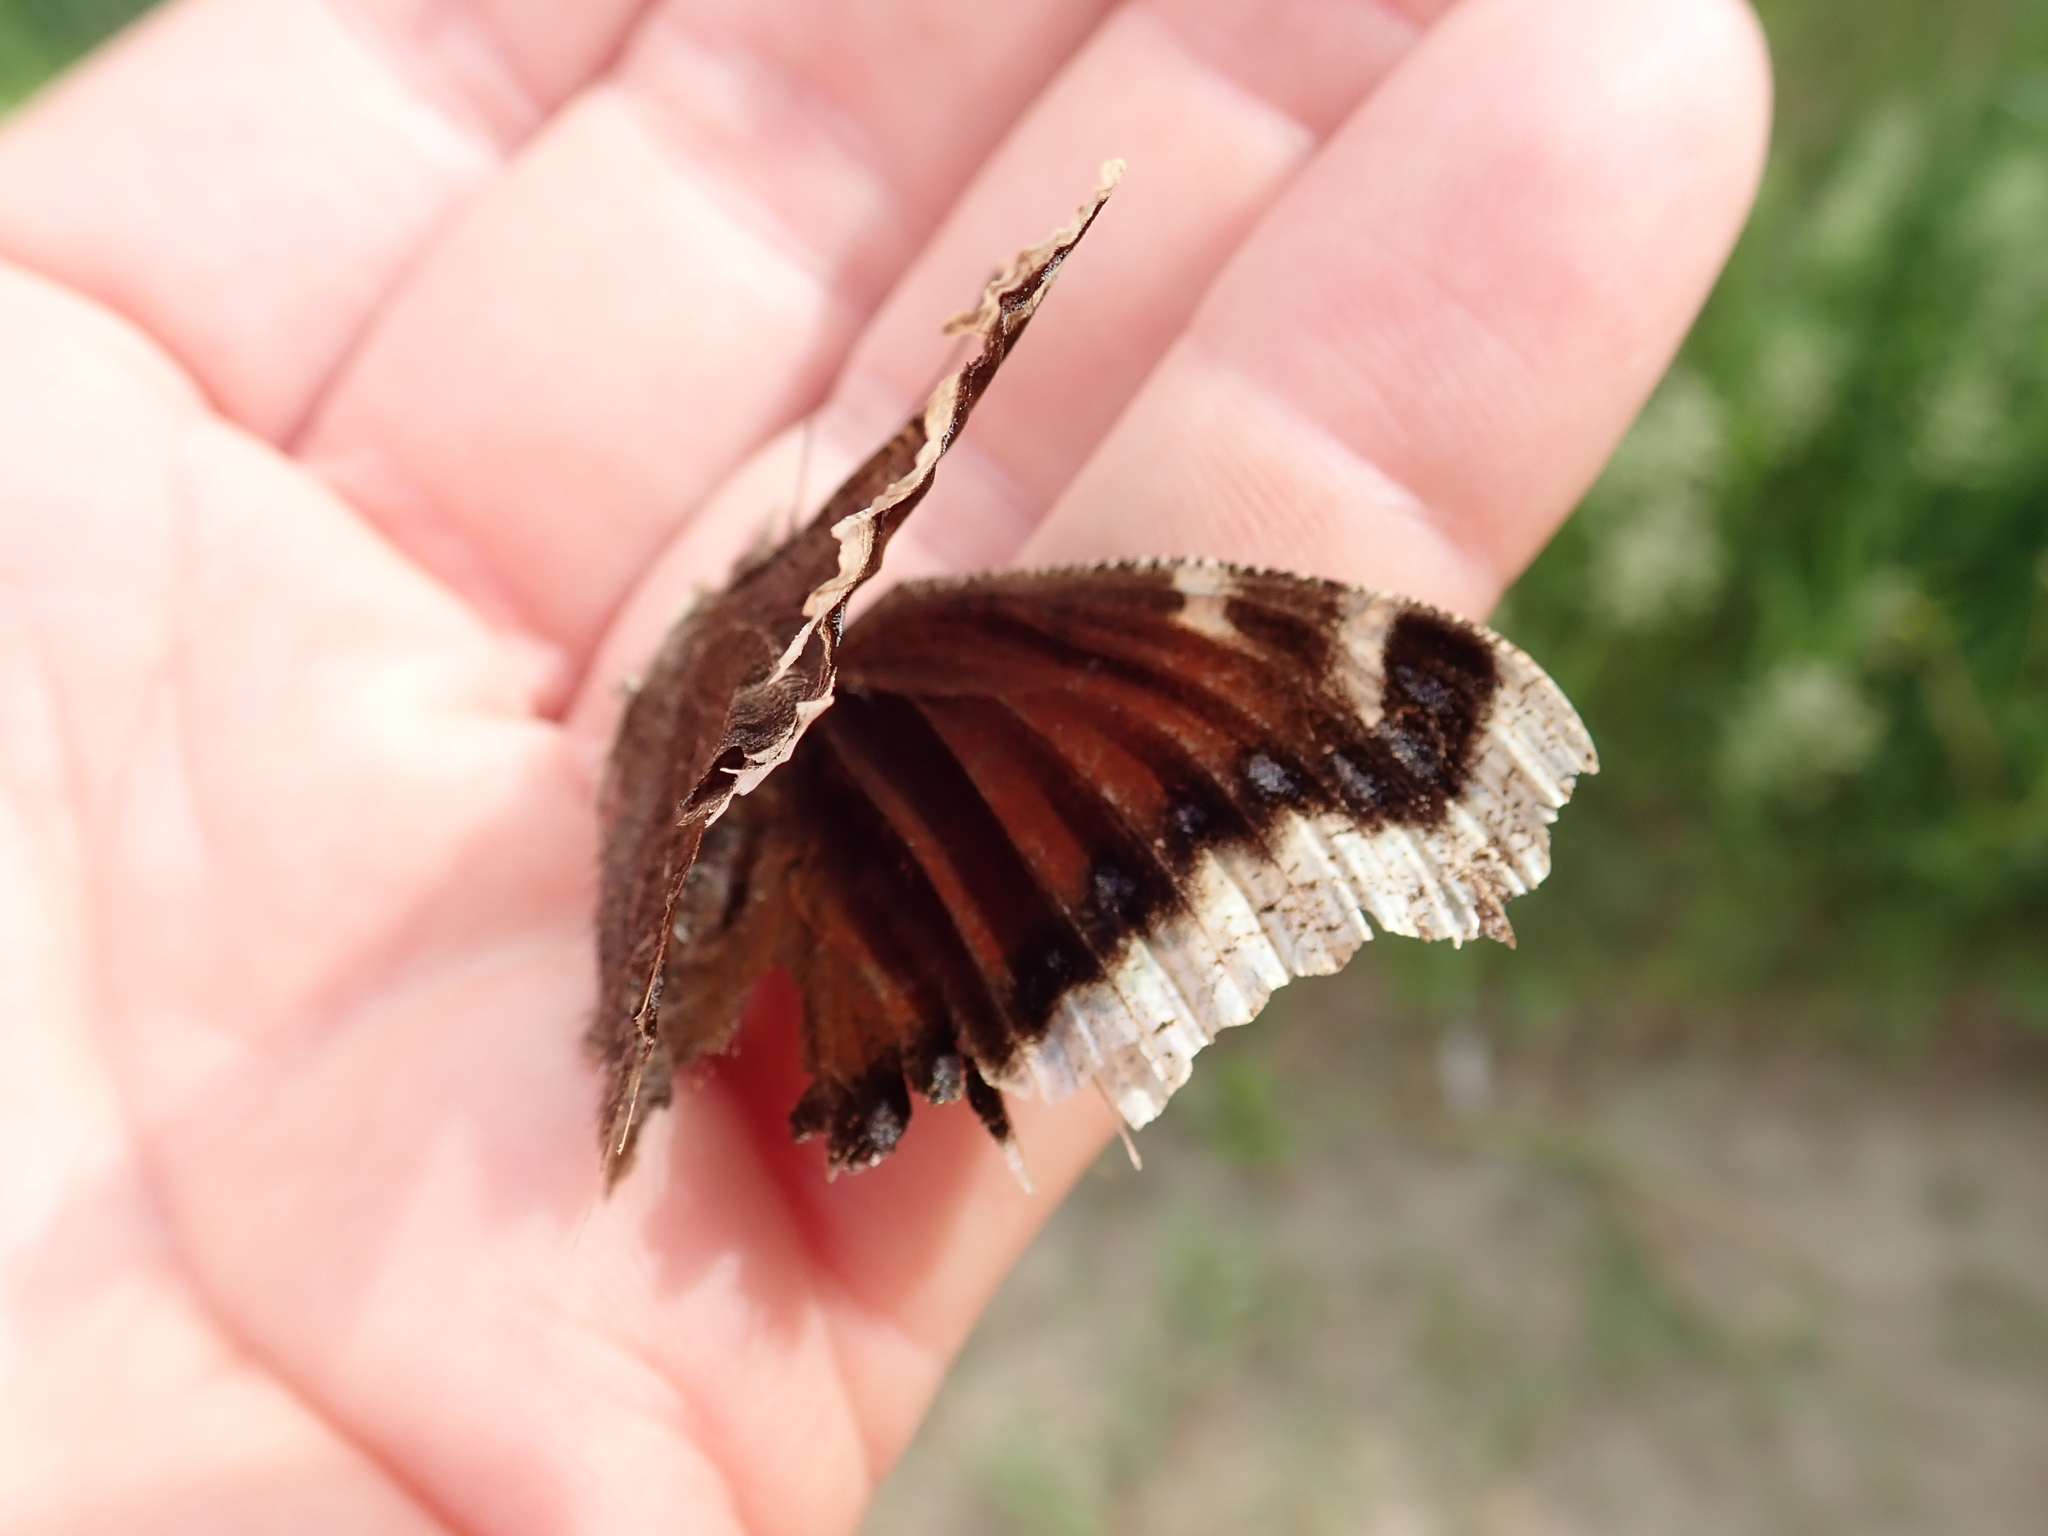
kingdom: Animalia
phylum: Arthropoda
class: Insecta
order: Lepidoptera
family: Nymphalidae
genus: Nymphalis
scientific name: Nymphalis antiopa
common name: Camberwell beauty
